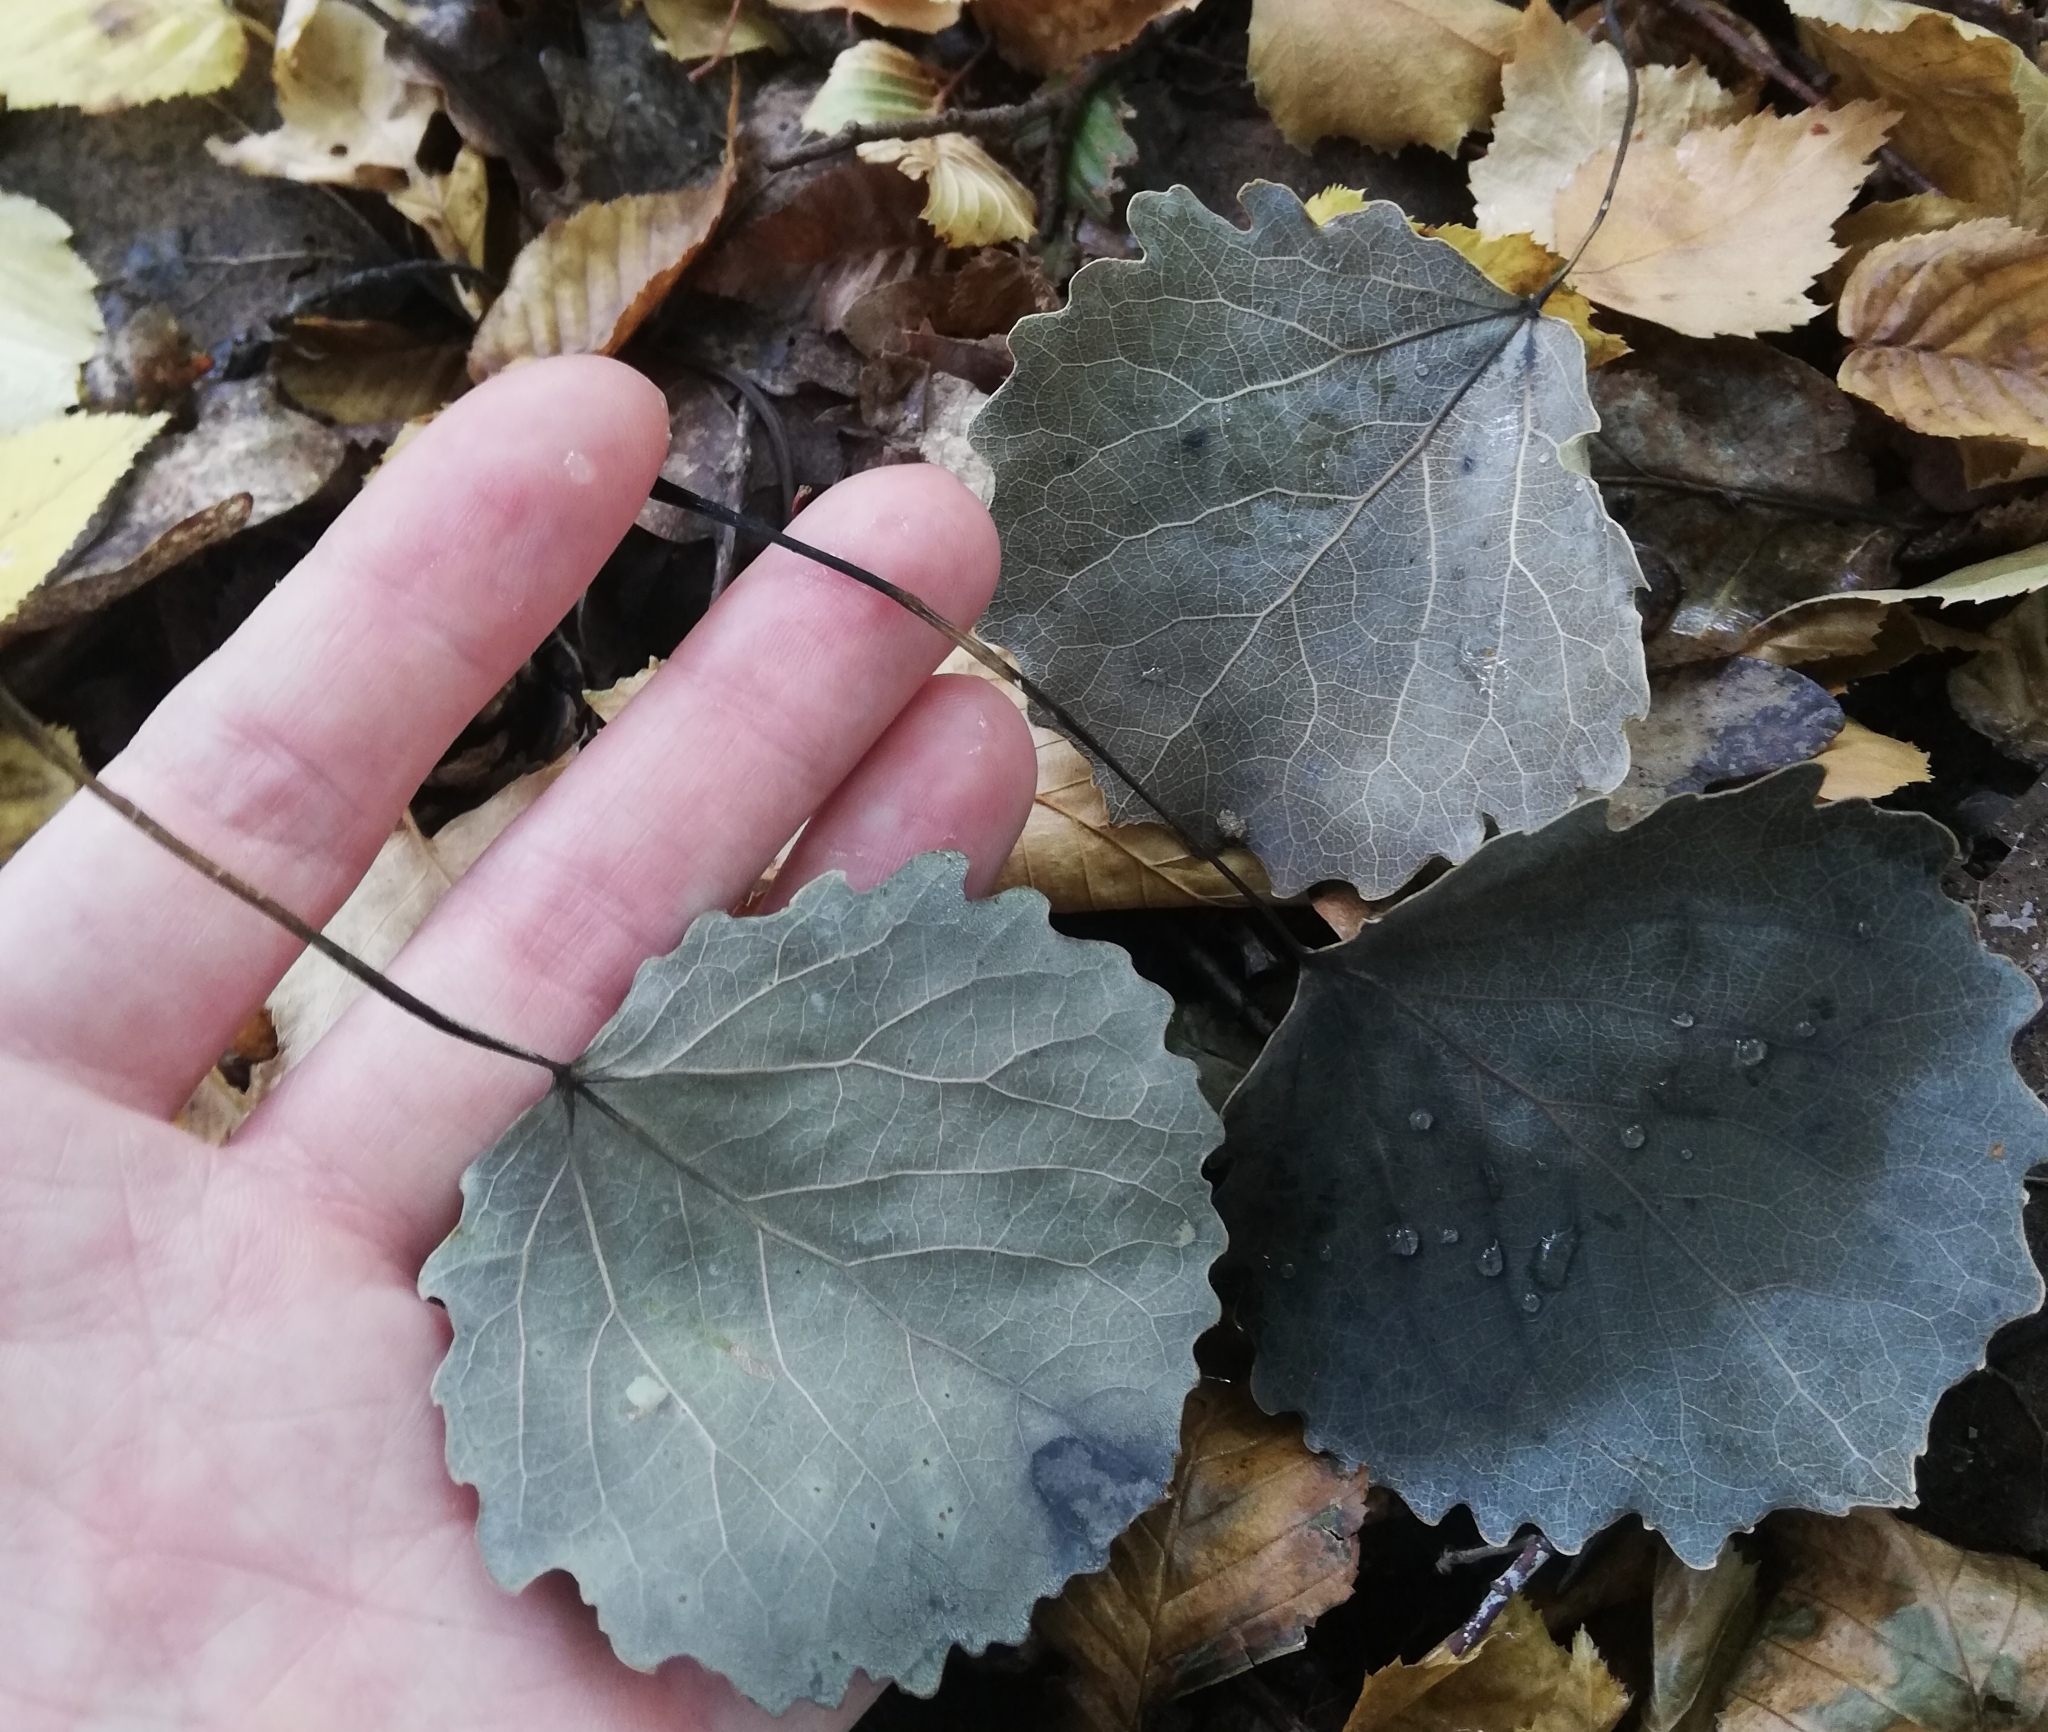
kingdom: Plantae
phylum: Tracheophyta
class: Magnoliopsida
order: Malpighiales
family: Salicaceae
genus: Populus
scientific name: Populus tremula
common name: European aspen
